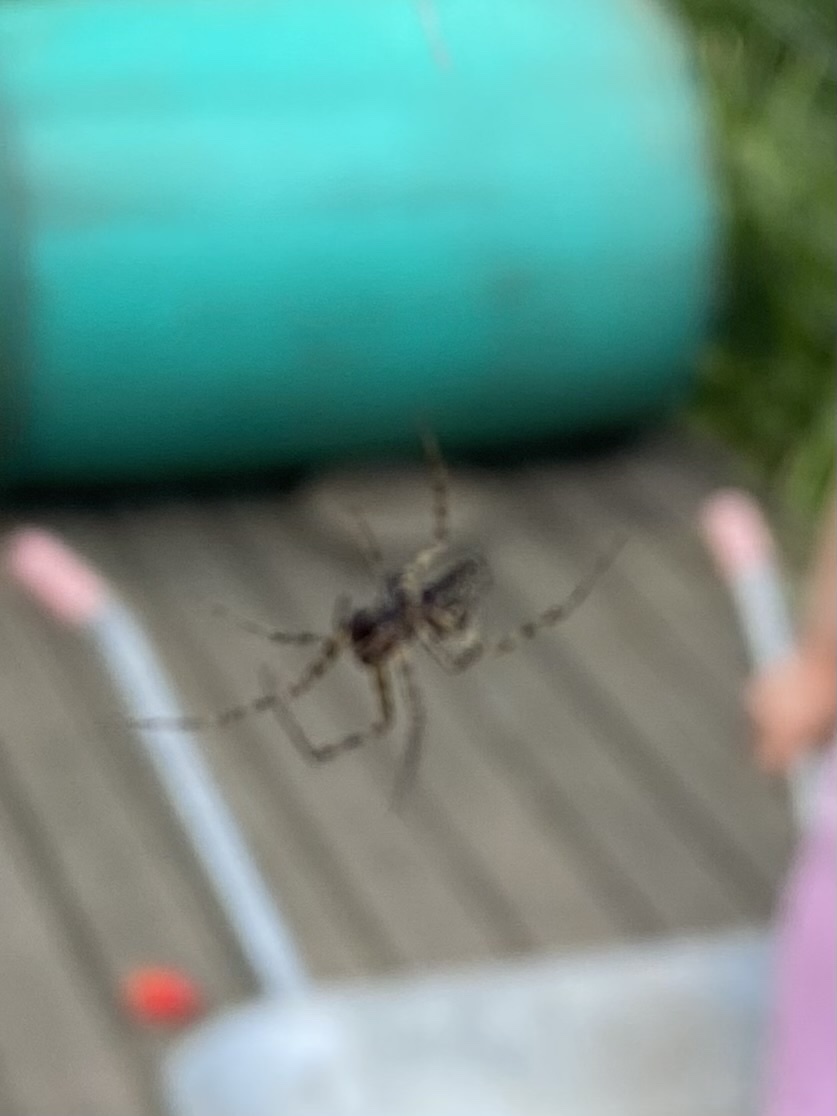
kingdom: Animalia
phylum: Arthropoda
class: Arachnida
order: Araneae
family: Linyphiidae
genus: Neriene
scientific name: Neriene montana
